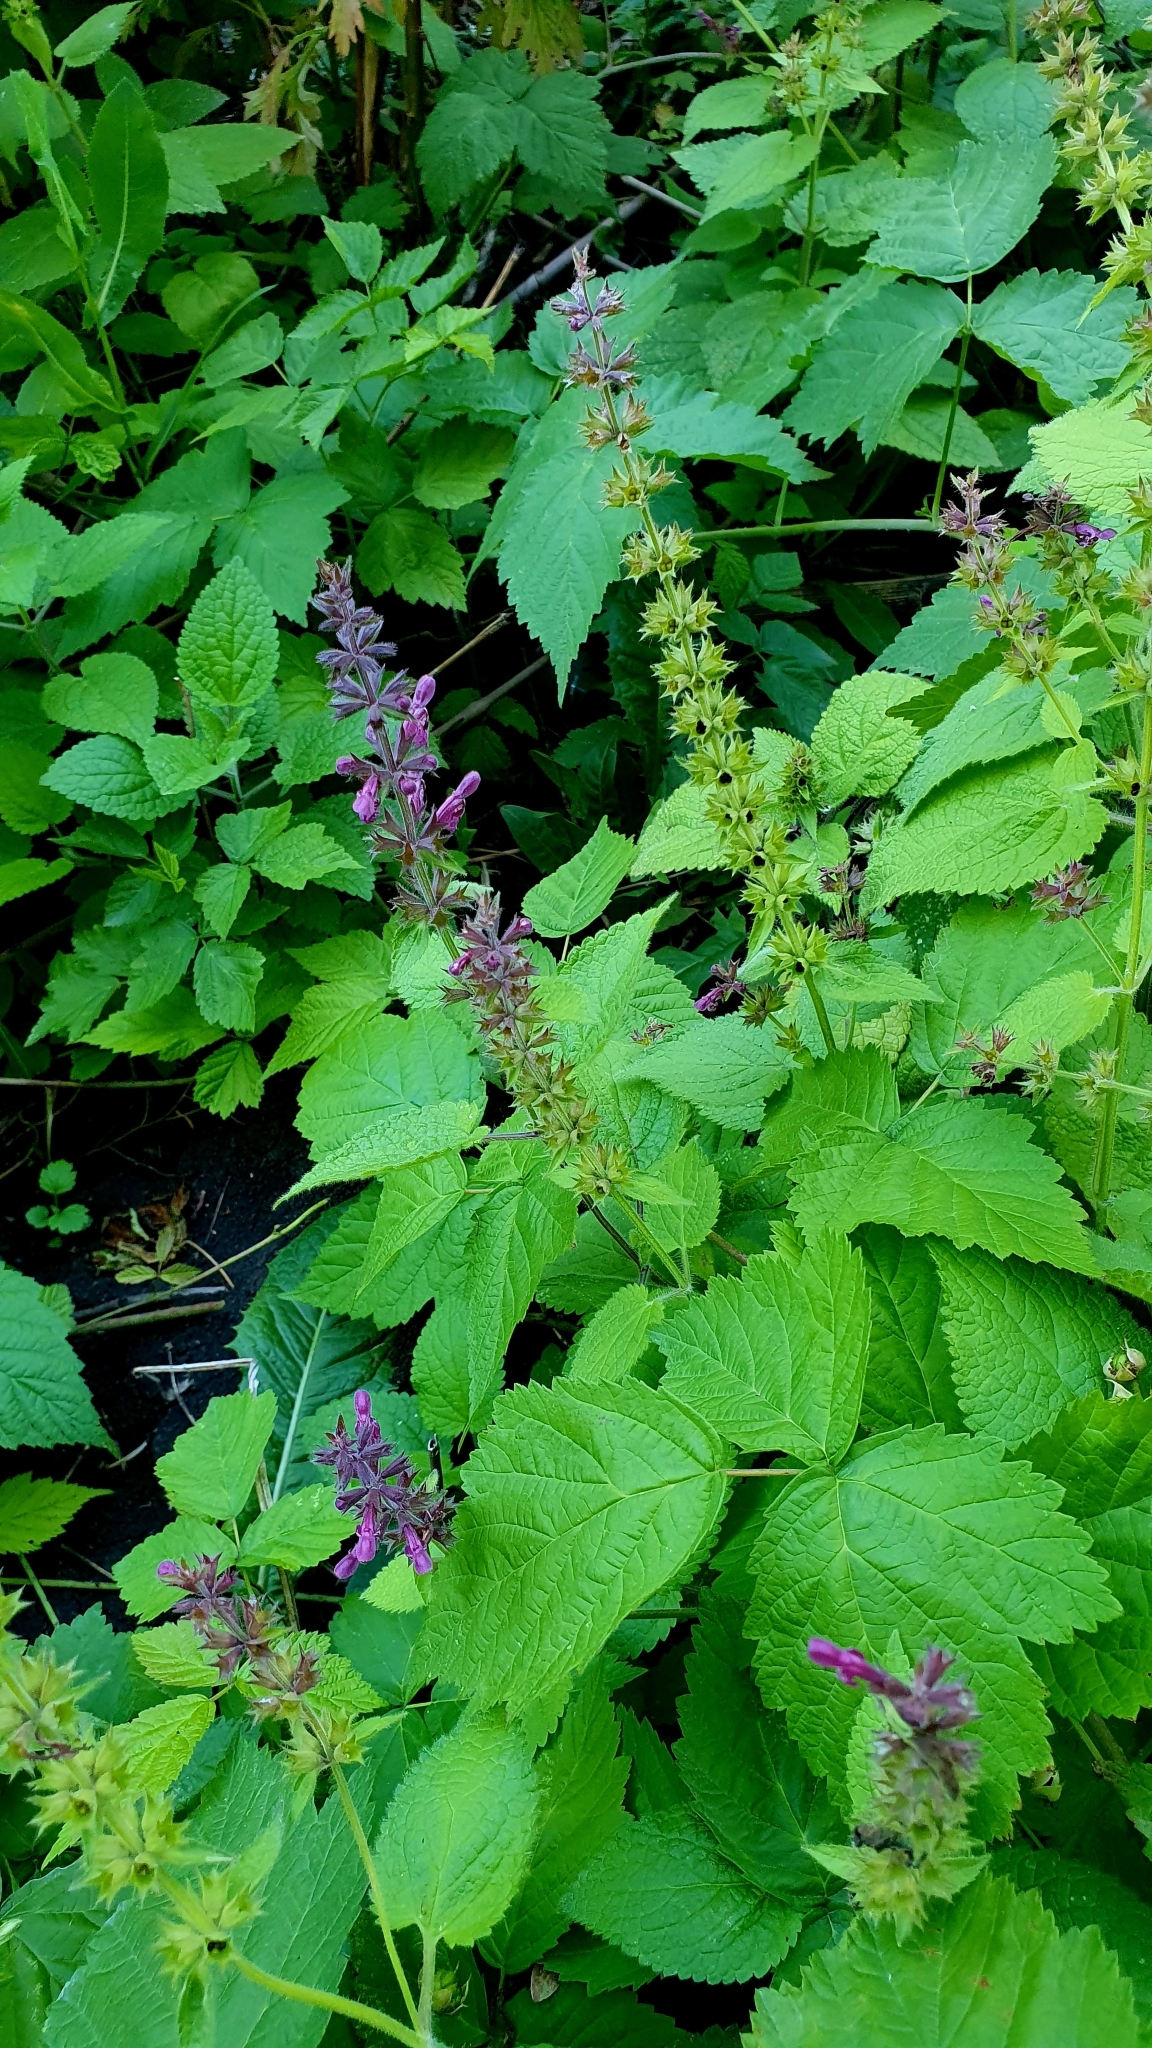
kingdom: Plantae
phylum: Tracheophyta
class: Magnoliopsida
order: Lamiales
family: Lamiaceae
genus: Stachys
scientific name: Stachys sylvatica
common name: Hedge woundwort
